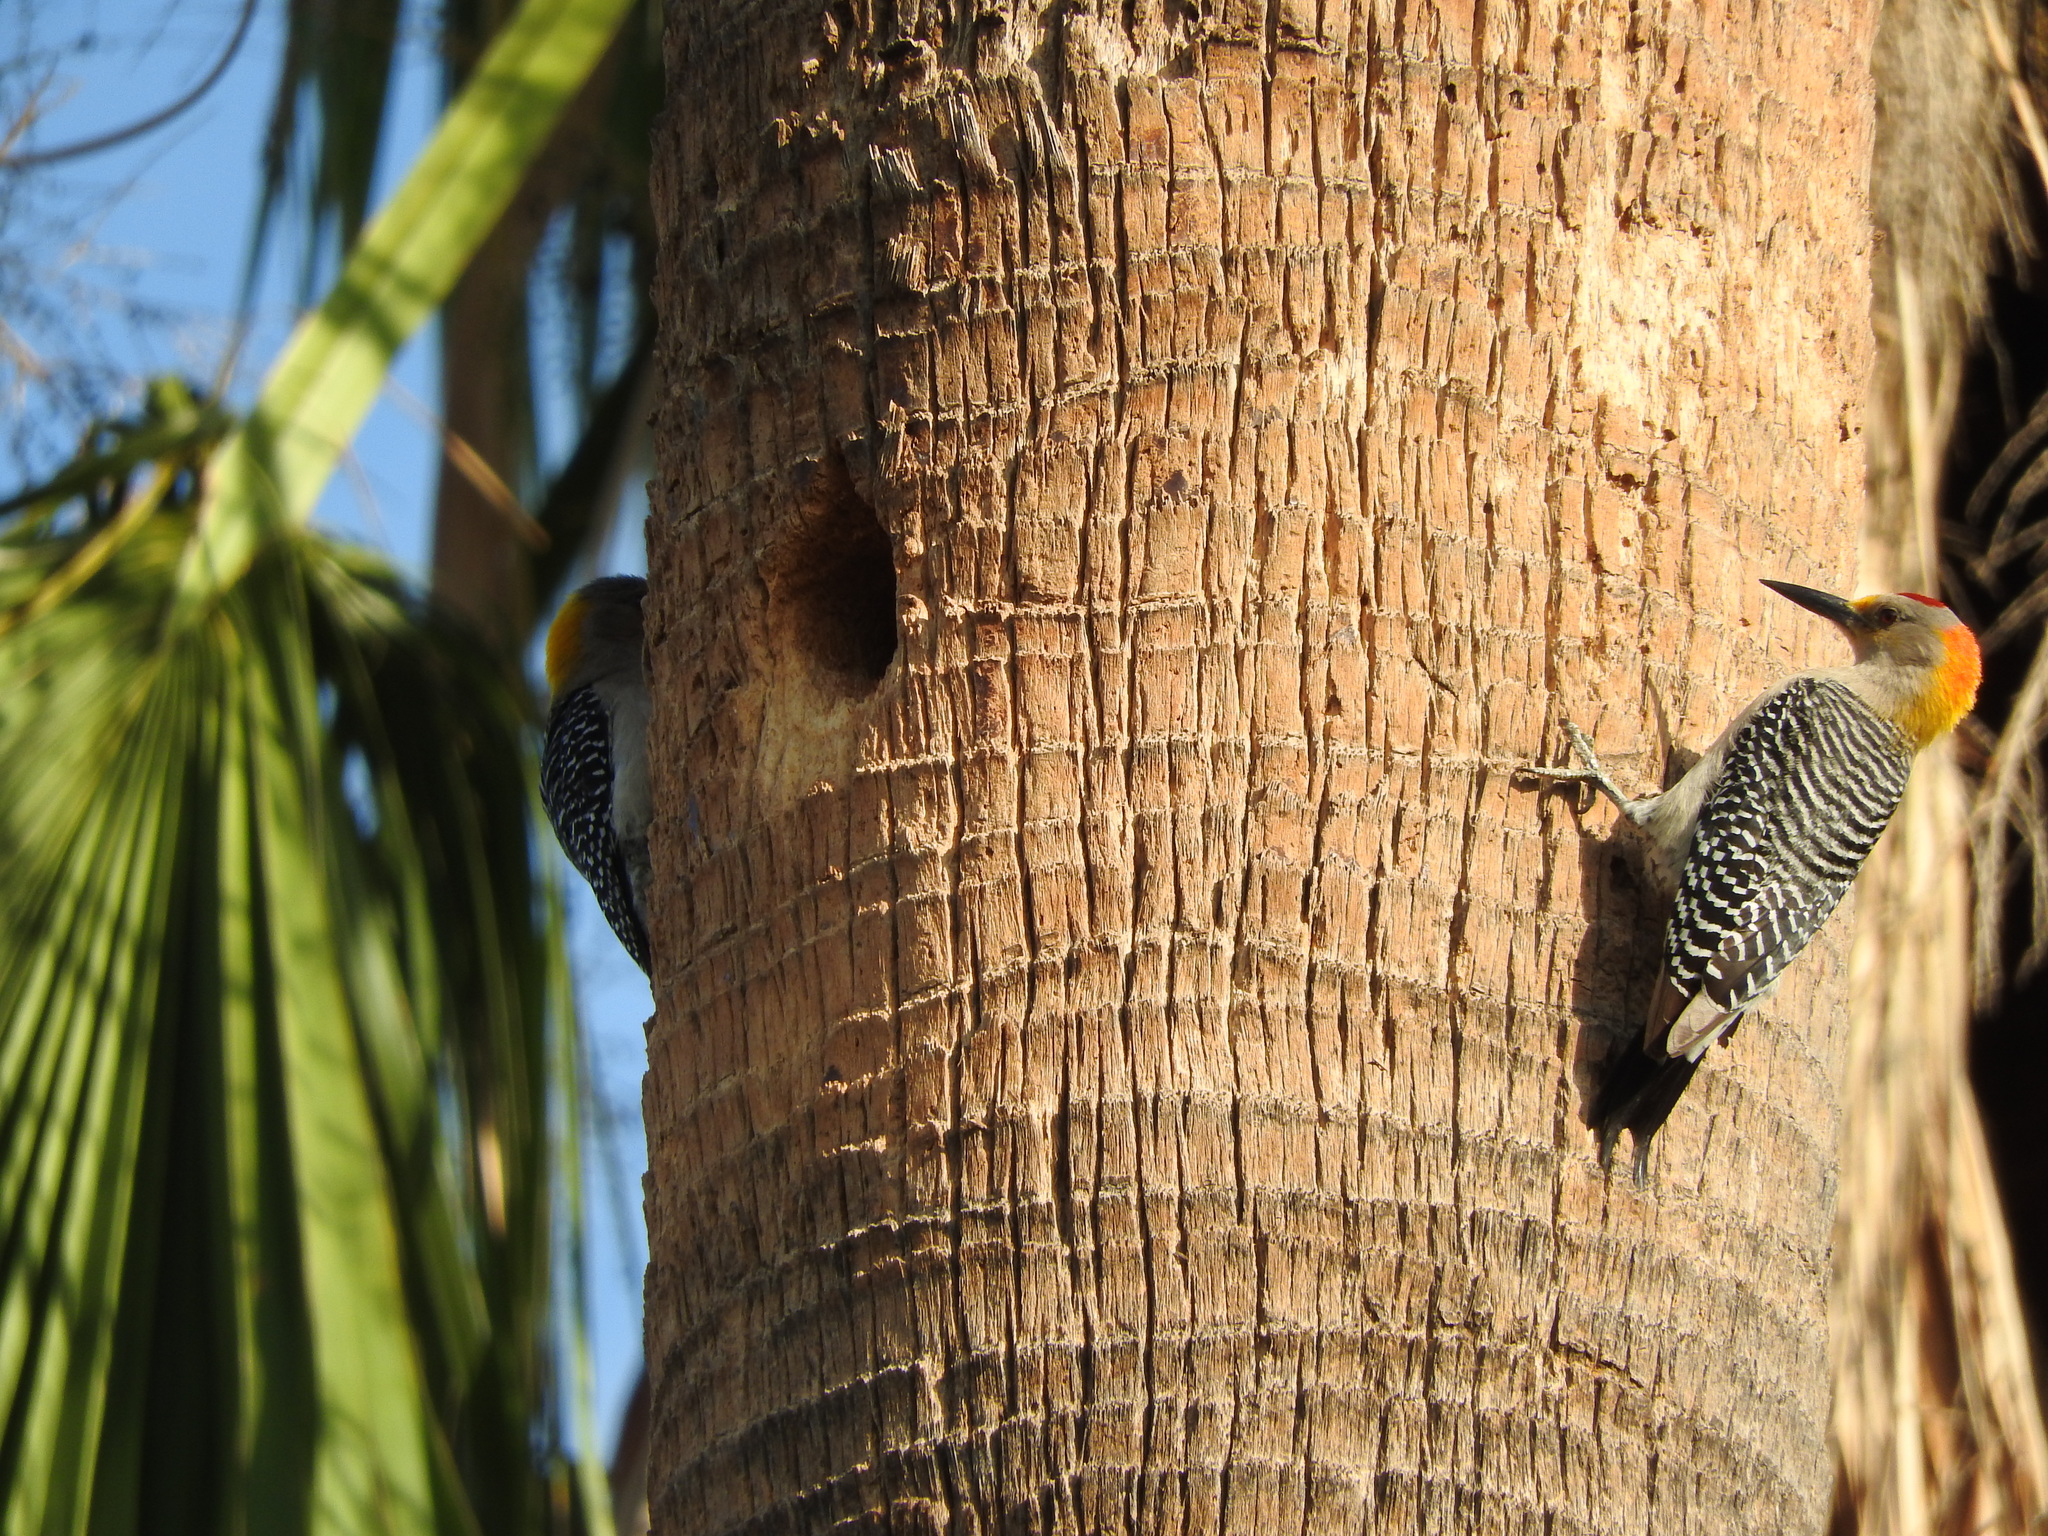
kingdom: Animalia
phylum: Chordata
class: Aves
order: Piciformes
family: Picidae
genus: Melanerpes
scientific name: Melanerpes aurifrons
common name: Golden-fronted woodpecker
